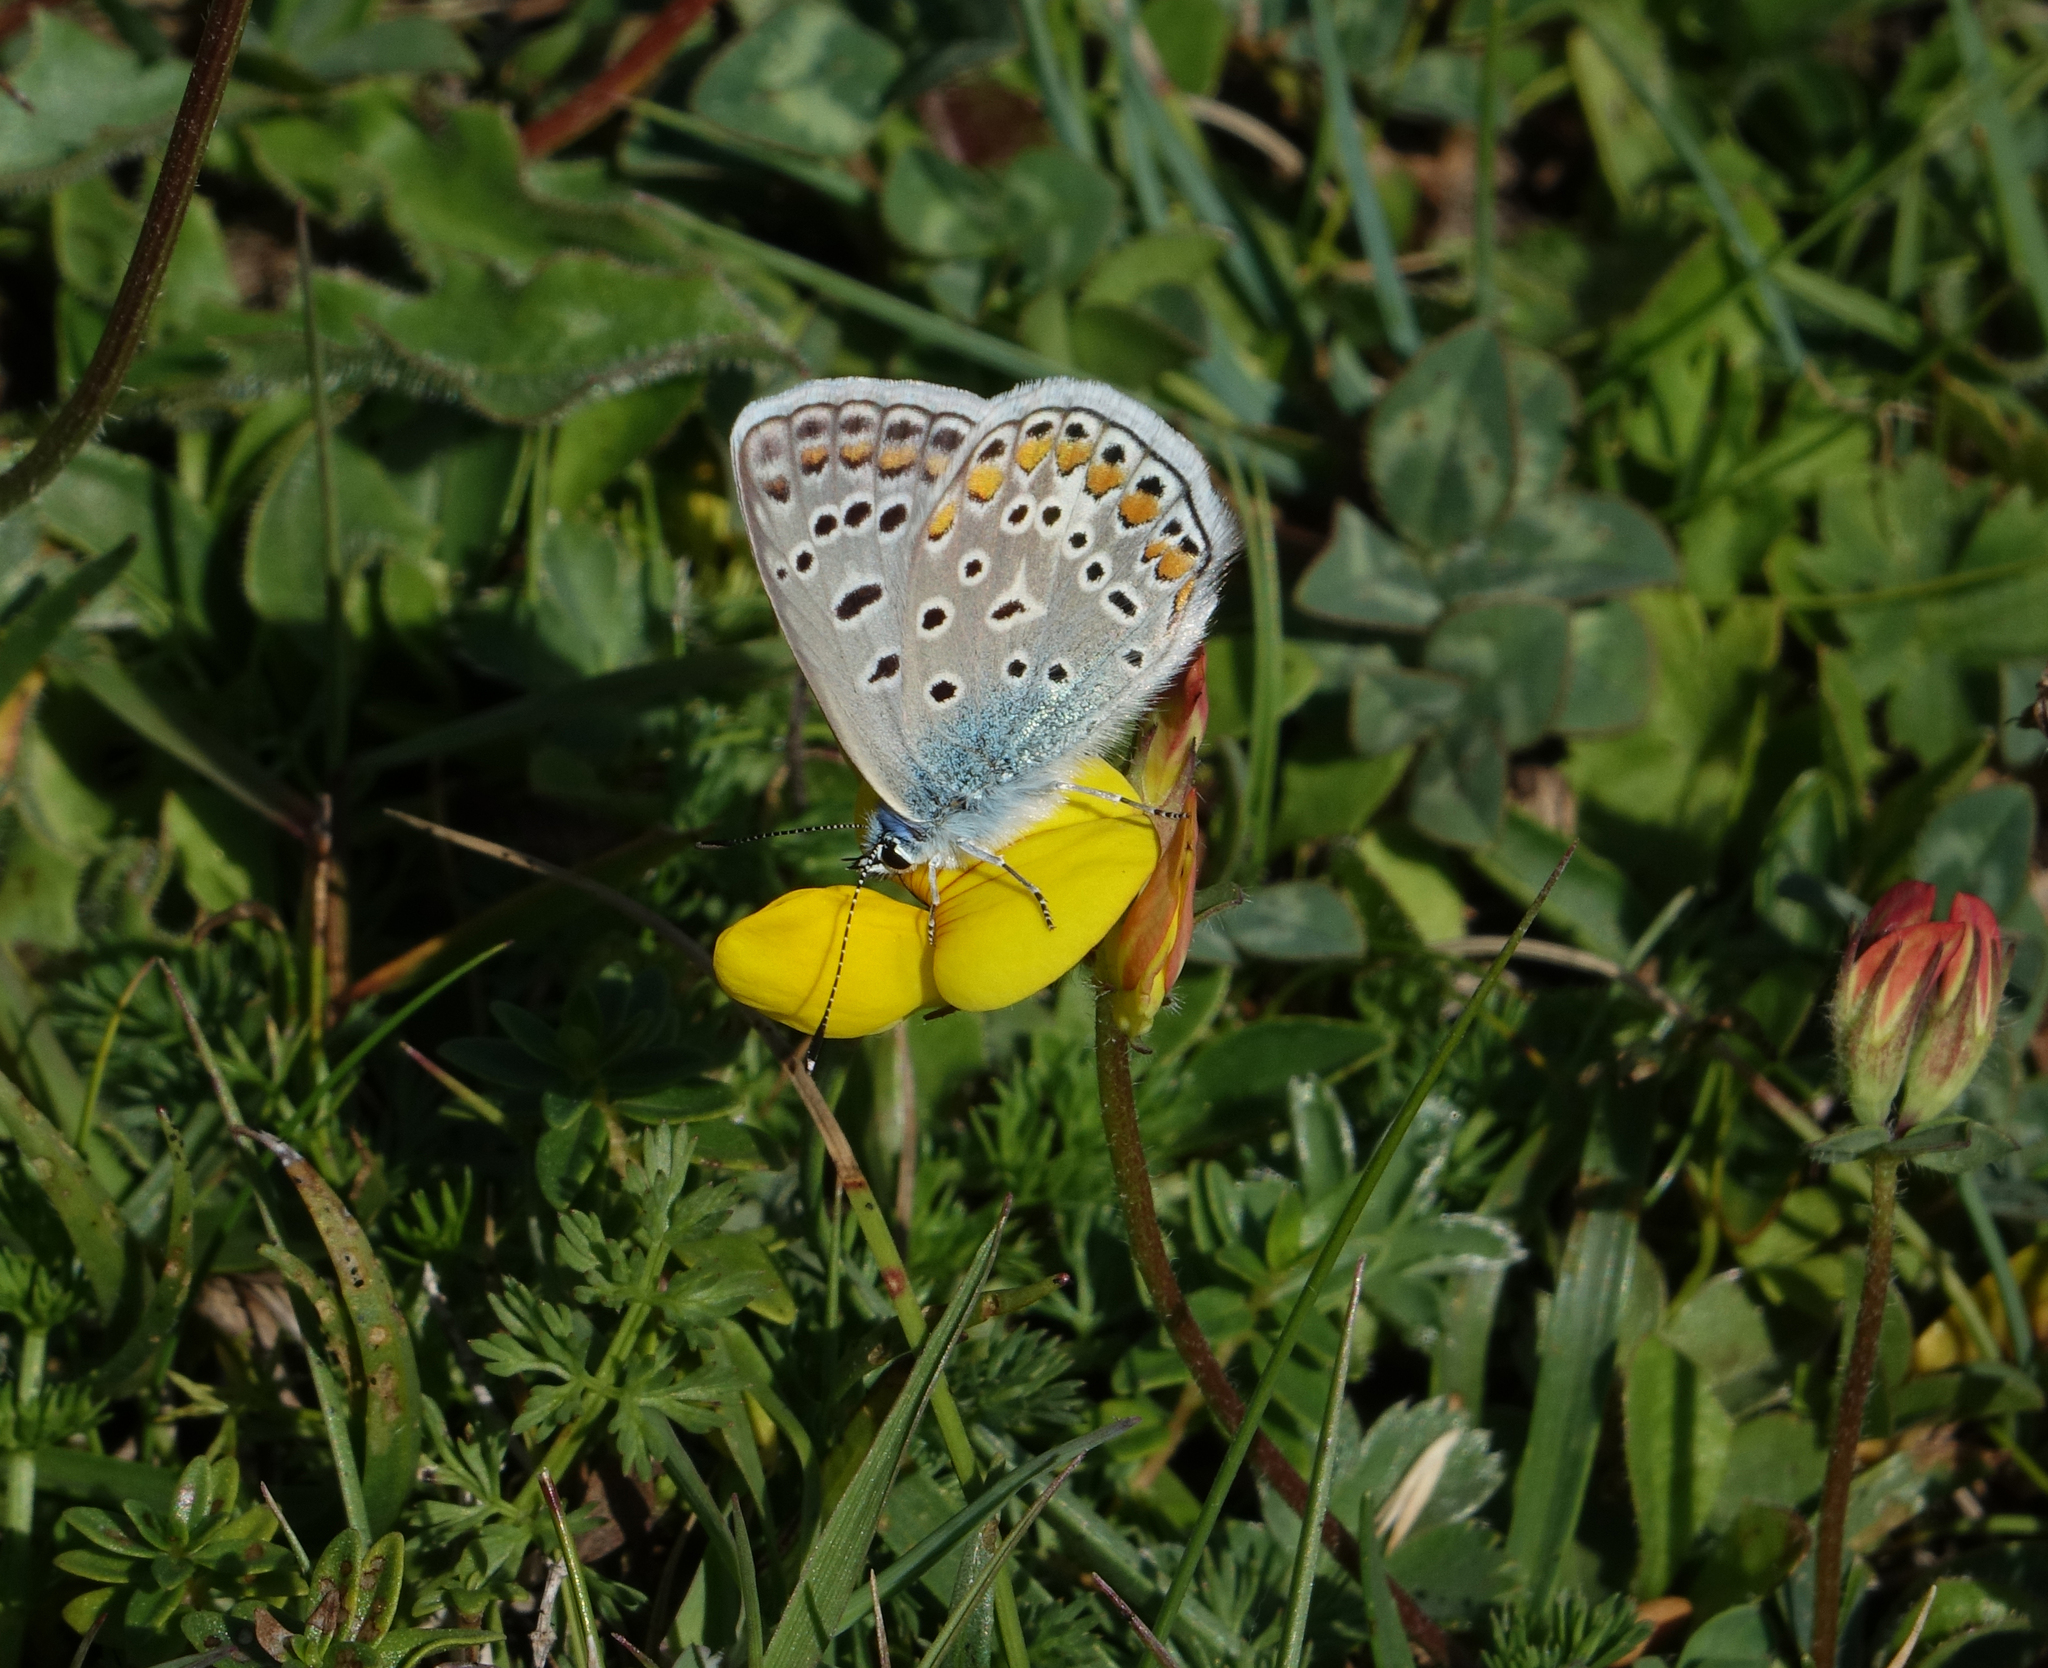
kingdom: Animalia
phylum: Arthropoda
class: Insecta
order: Lepidoptera
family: Lycaenidae
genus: Polyommatus
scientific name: Polyommatus icarus
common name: Common blue
